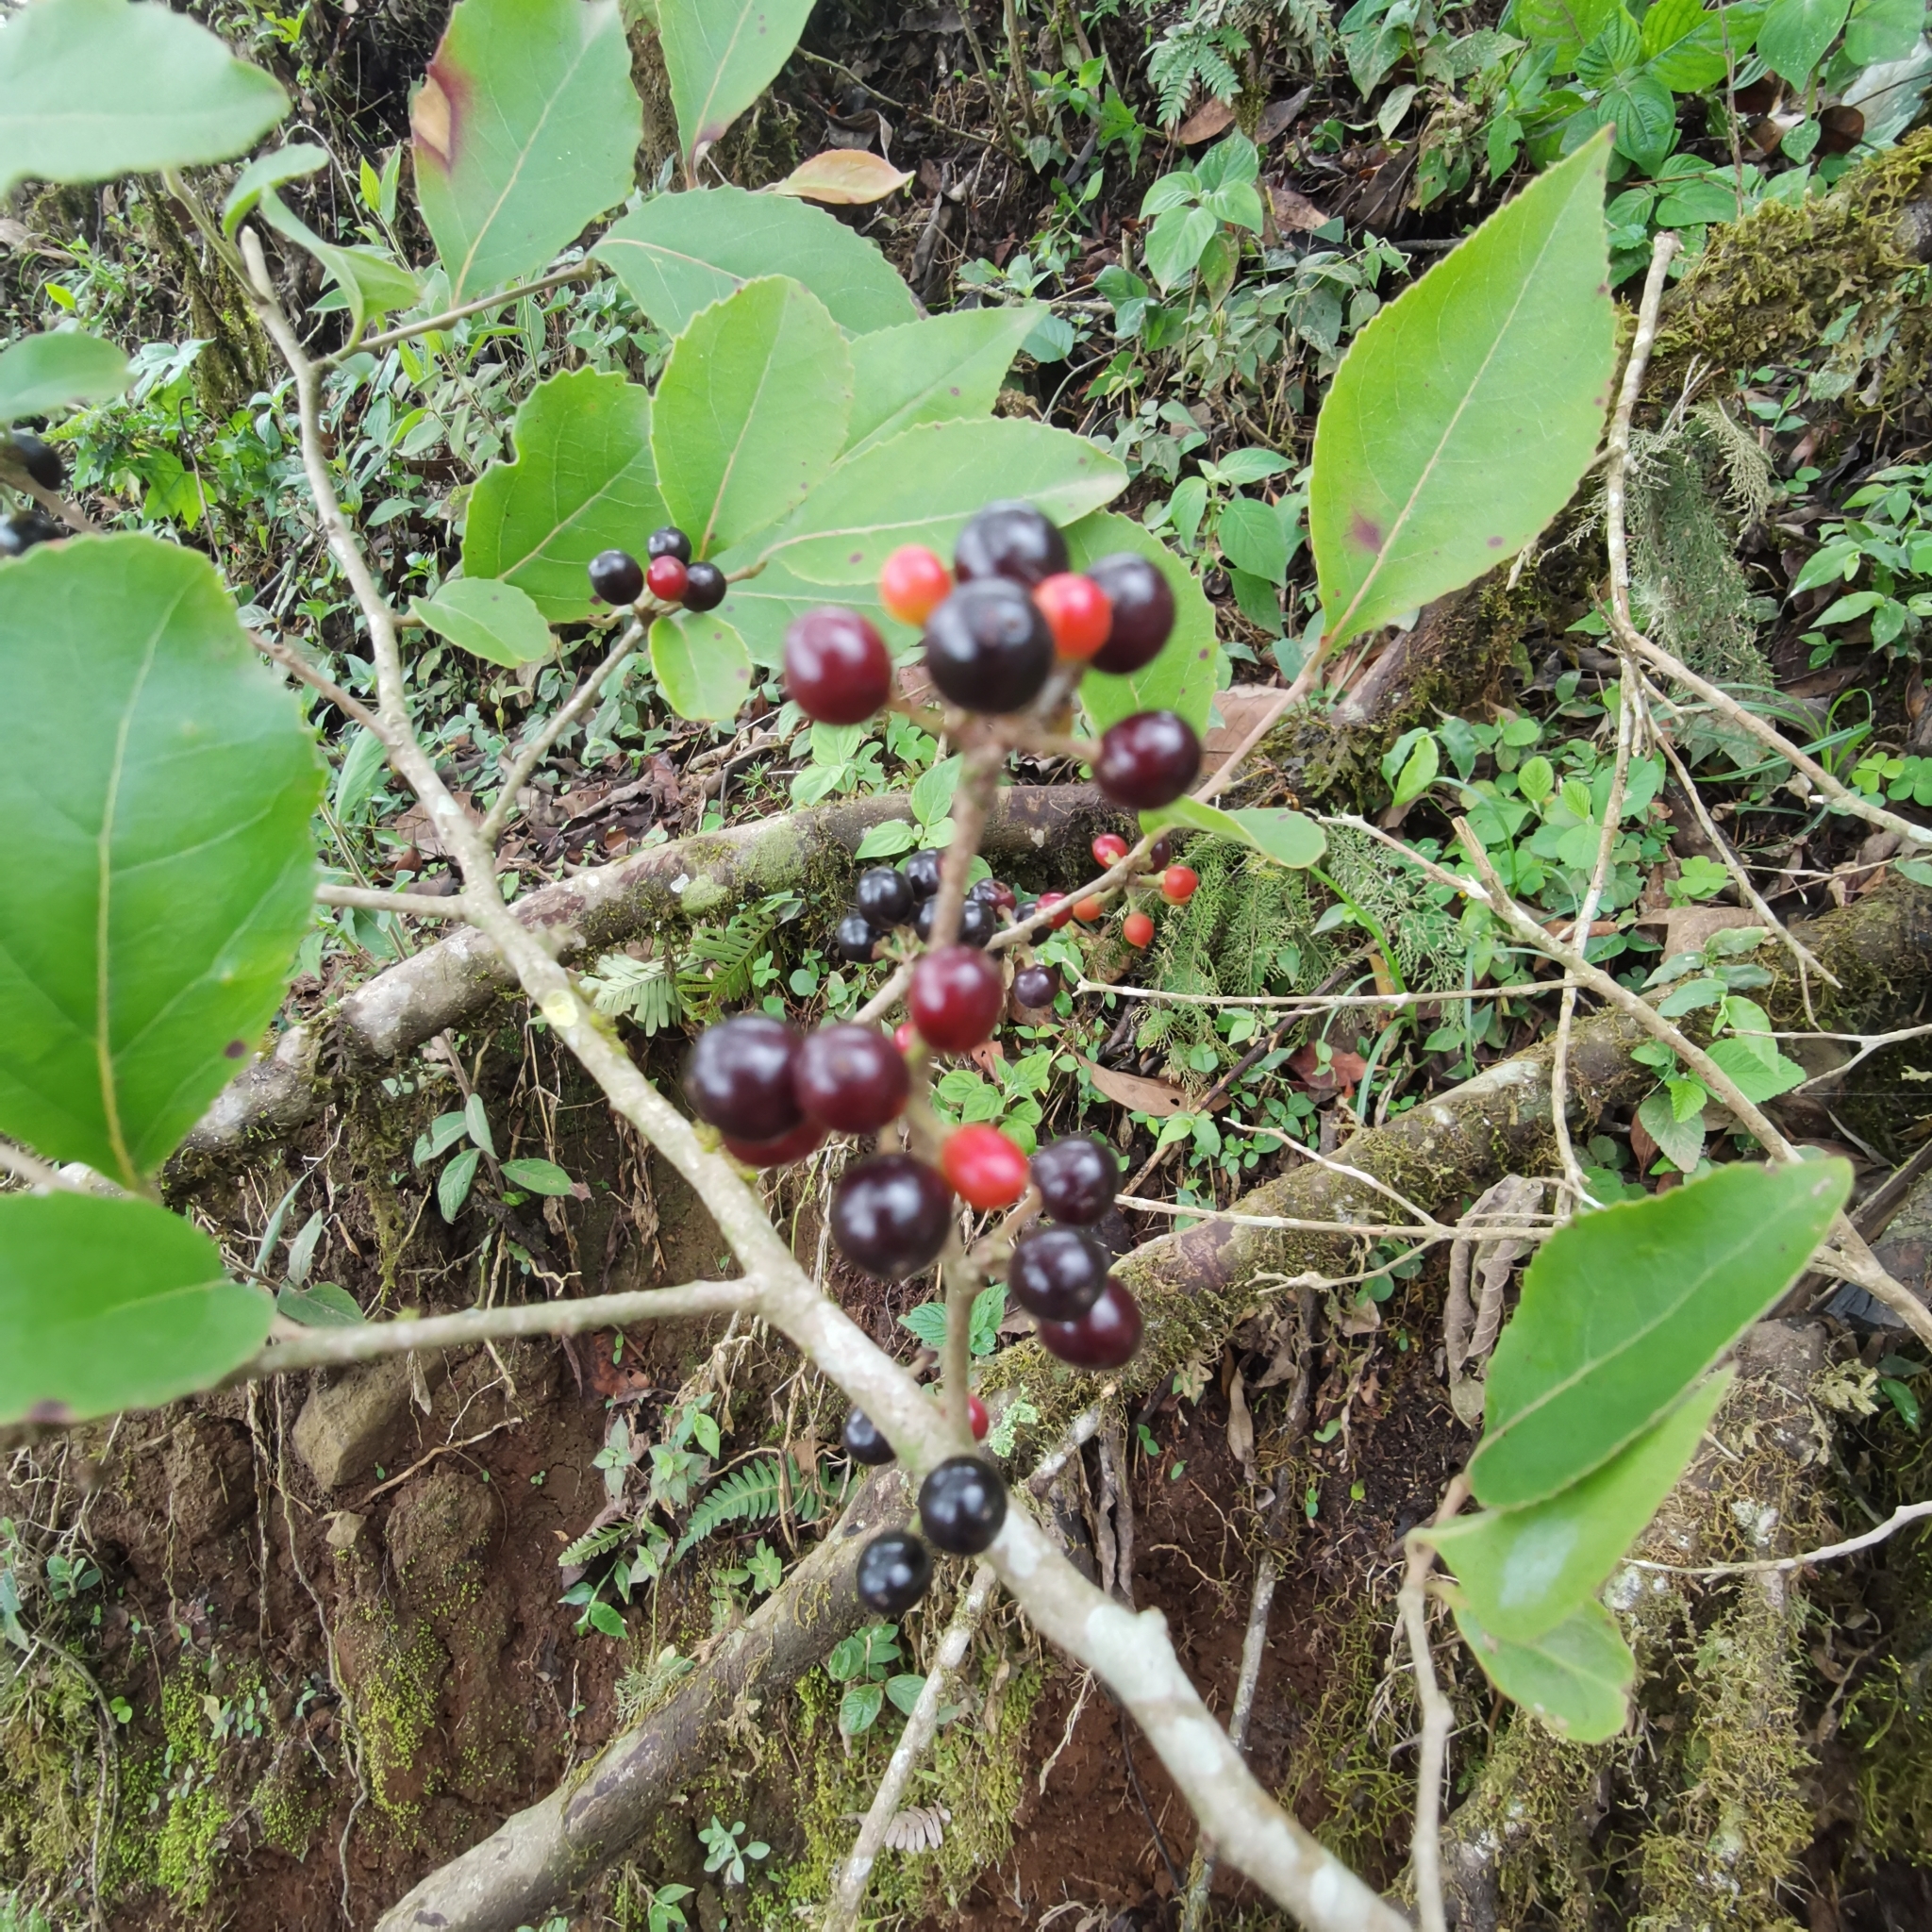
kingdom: Plantae
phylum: Tracheophyta
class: Magnoliopsida
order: Malpighiales
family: Salicaceae
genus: Xylosma
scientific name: Xylosma flexuosa
